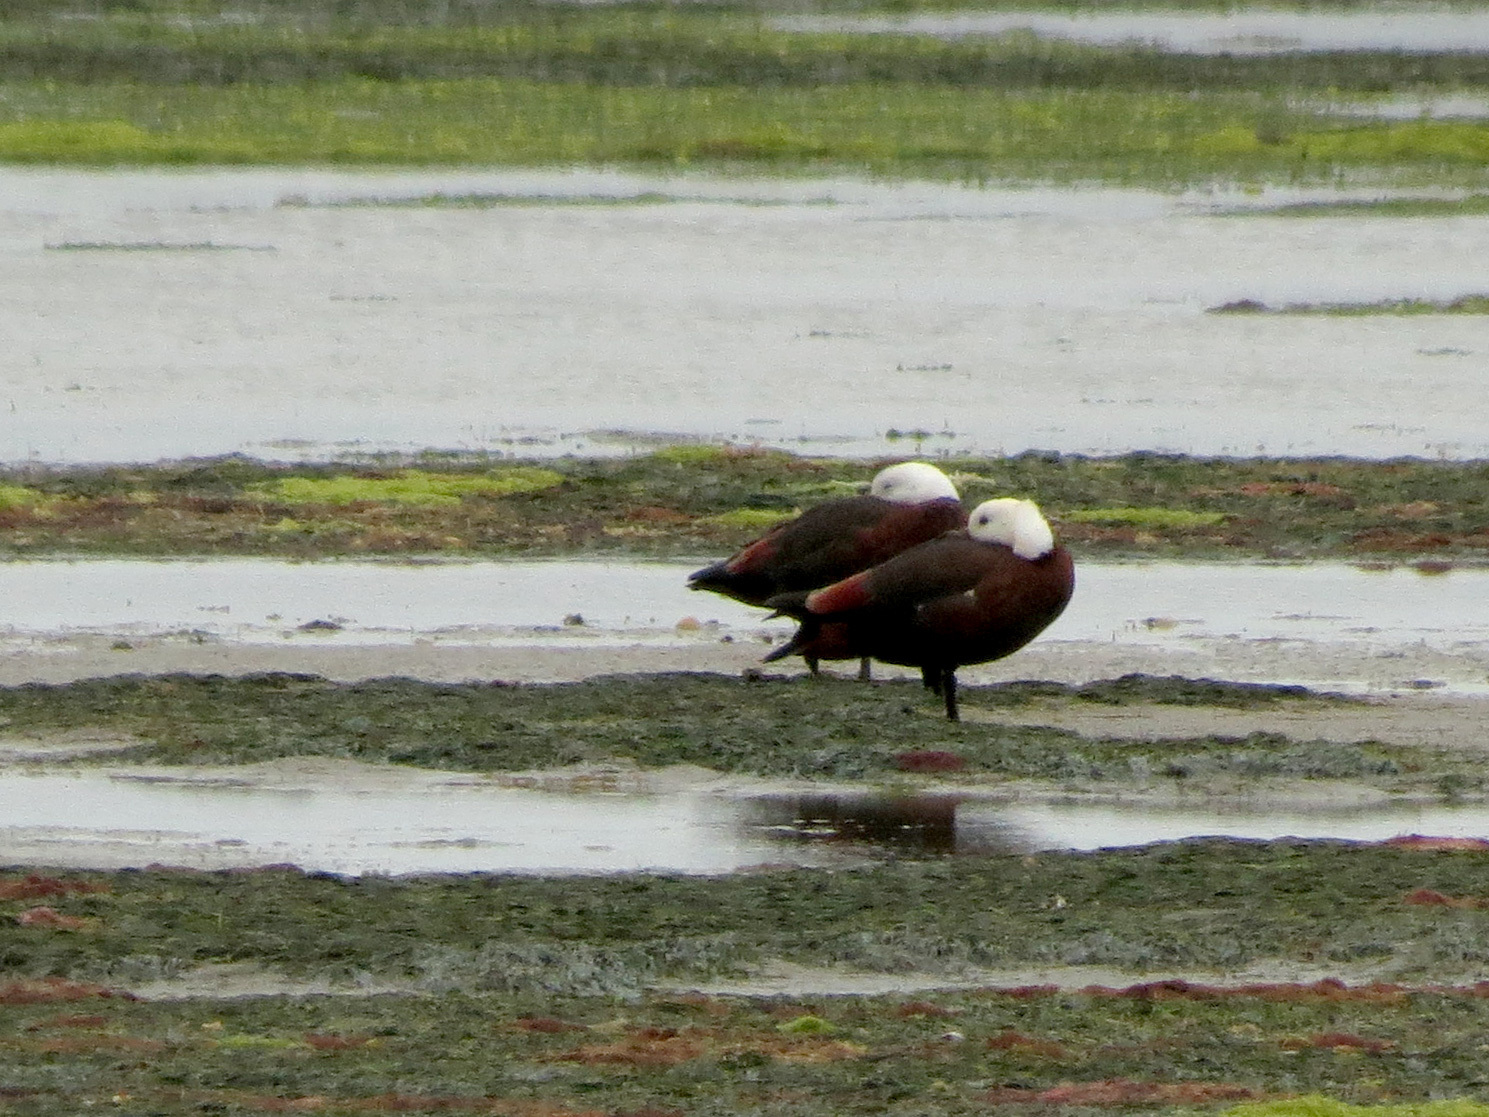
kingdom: Animalia
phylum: Chordata
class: Aves
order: Anseriformes
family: Anatidae
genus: Tadorna
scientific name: Tadorna variegata
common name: Paradise shelduck
